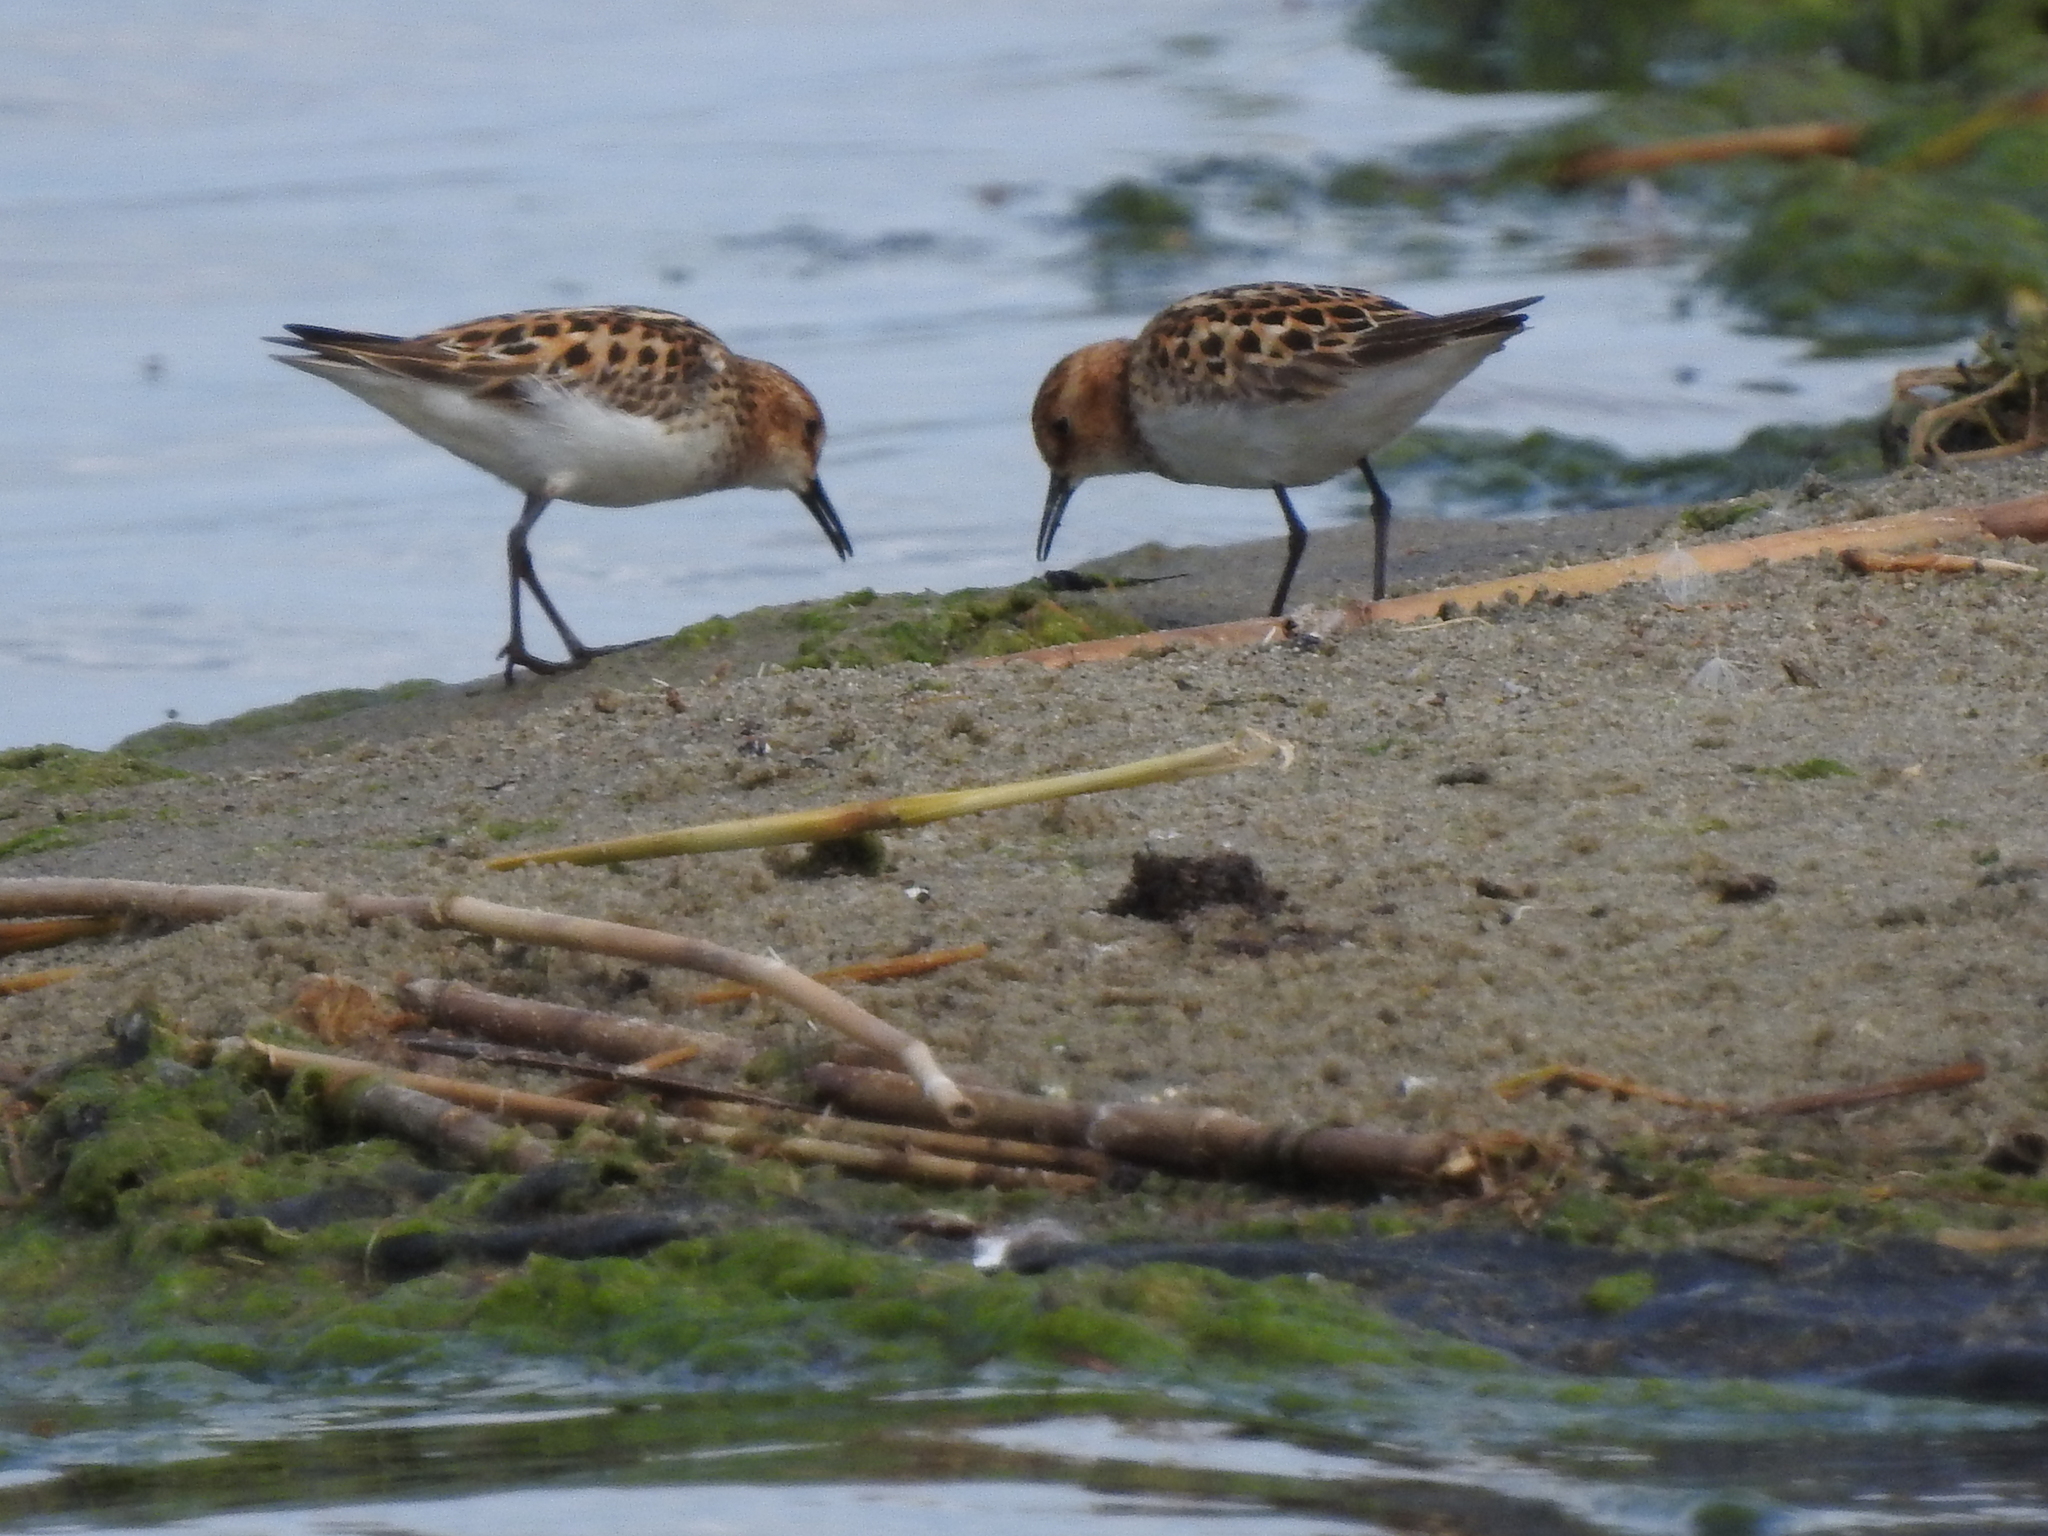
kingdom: Animalia
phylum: Chordata
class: Aves
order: Charadriiformes
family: Scolopacidae
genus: Calidris
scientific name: Calidris minuta
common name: Little stint
